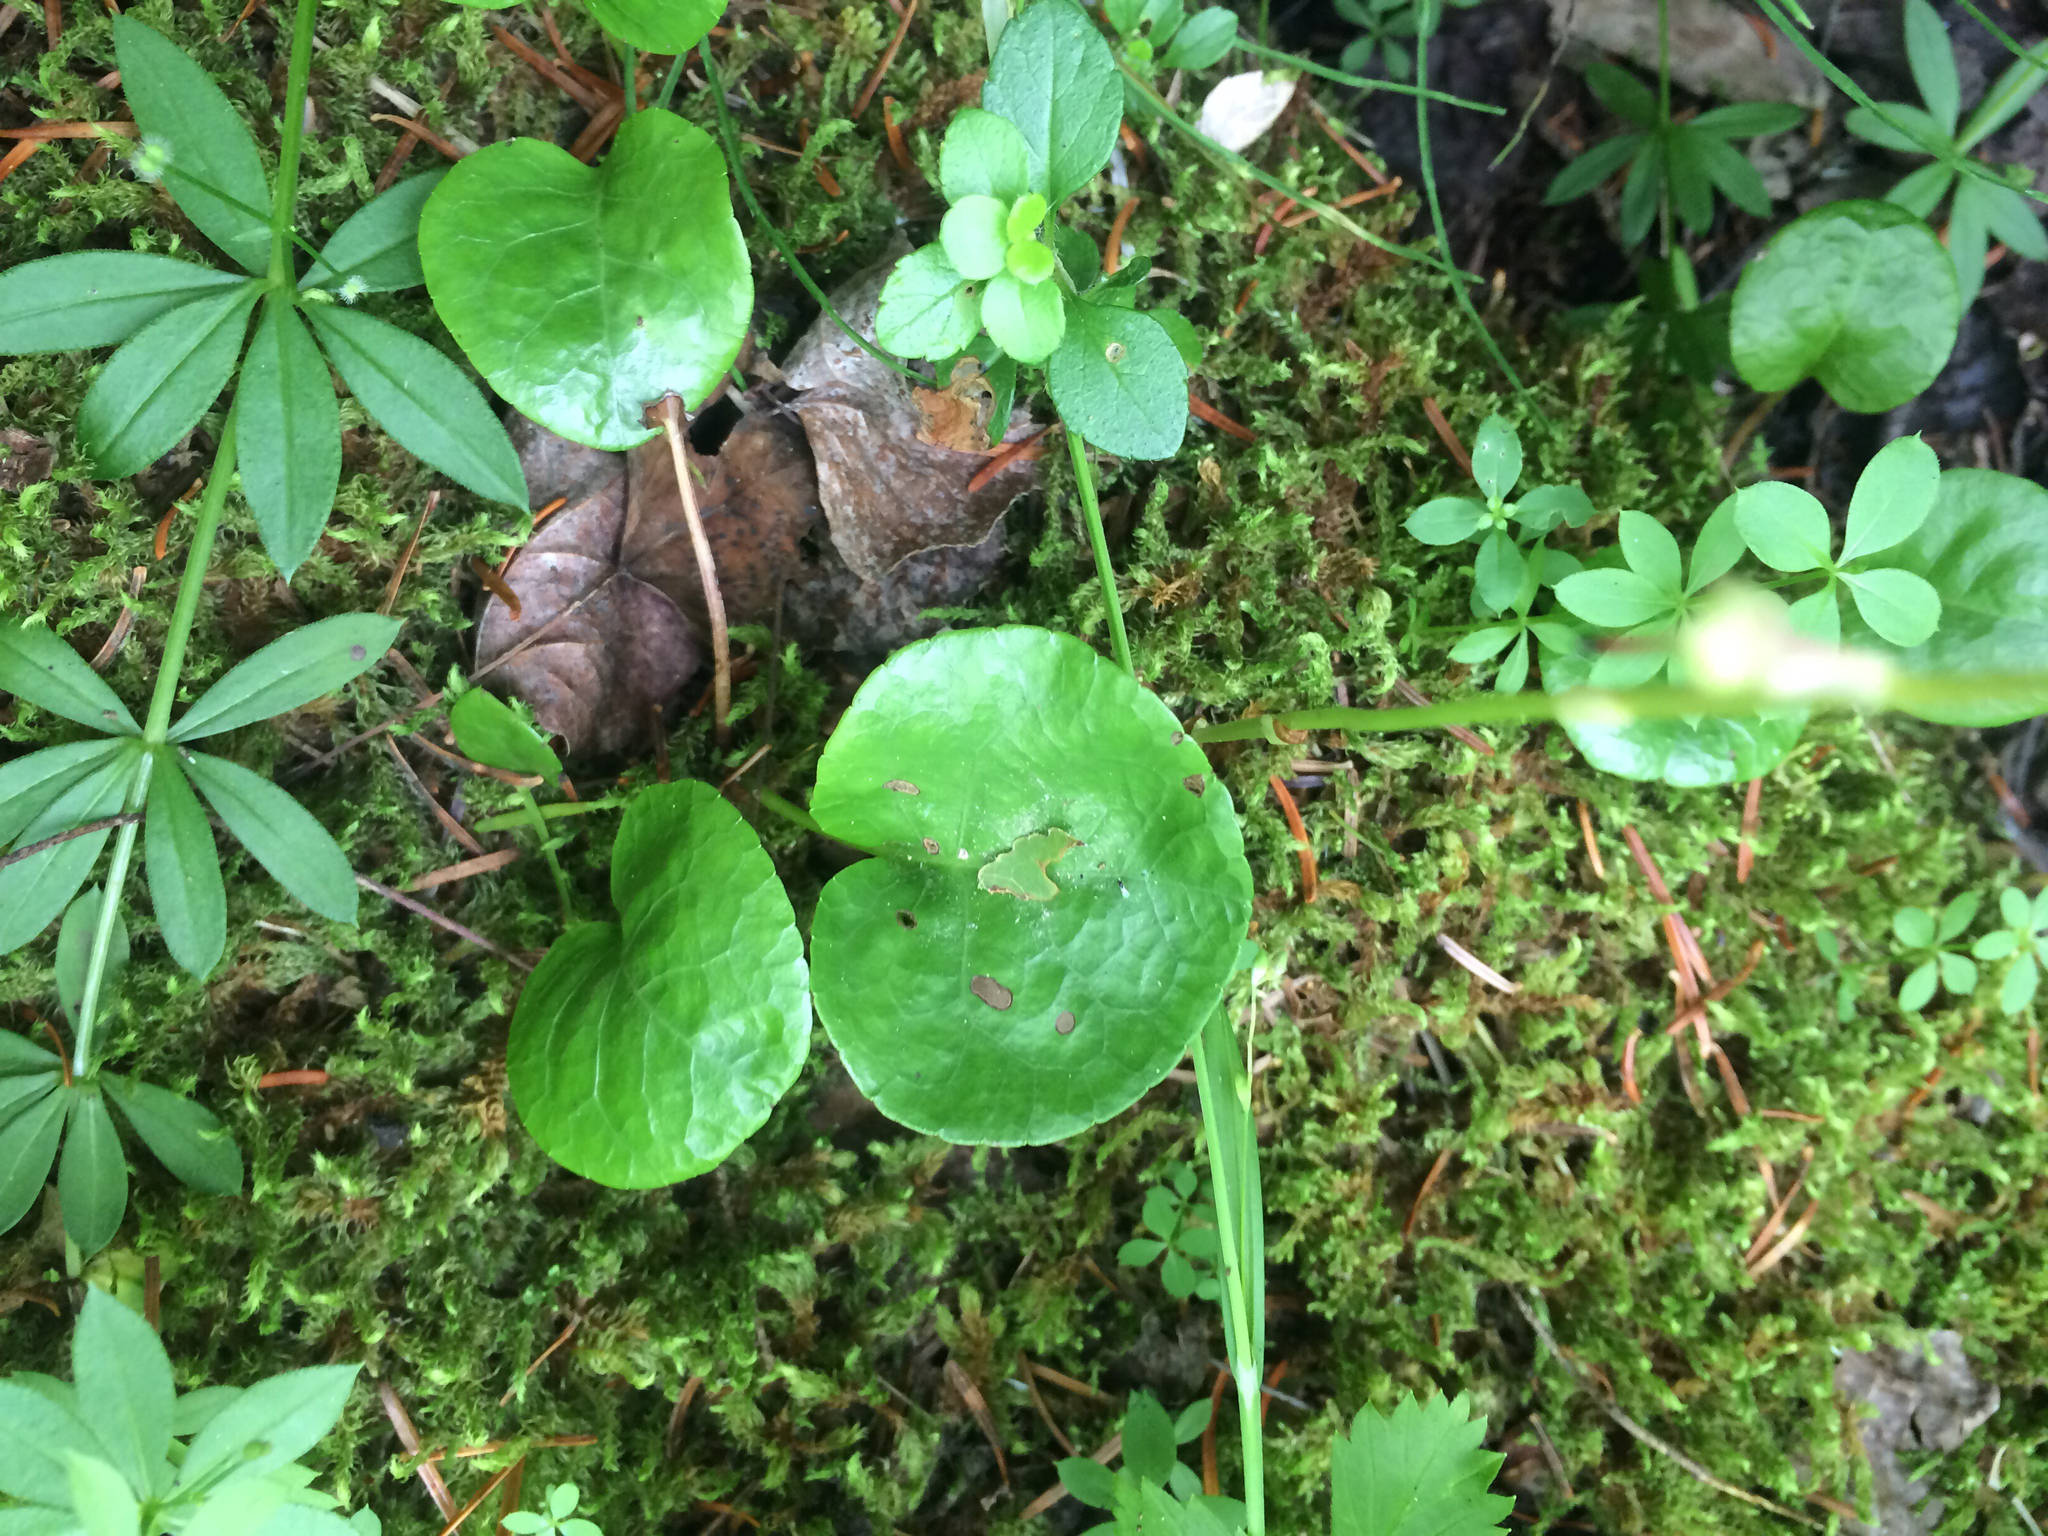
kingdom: Plantae
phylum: Tracheophyta
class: Magnoliopsida
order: Ericales
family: Ericaceae
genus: Pyrola
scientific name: Pyrola asarifolia
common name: Bog wintergreen
